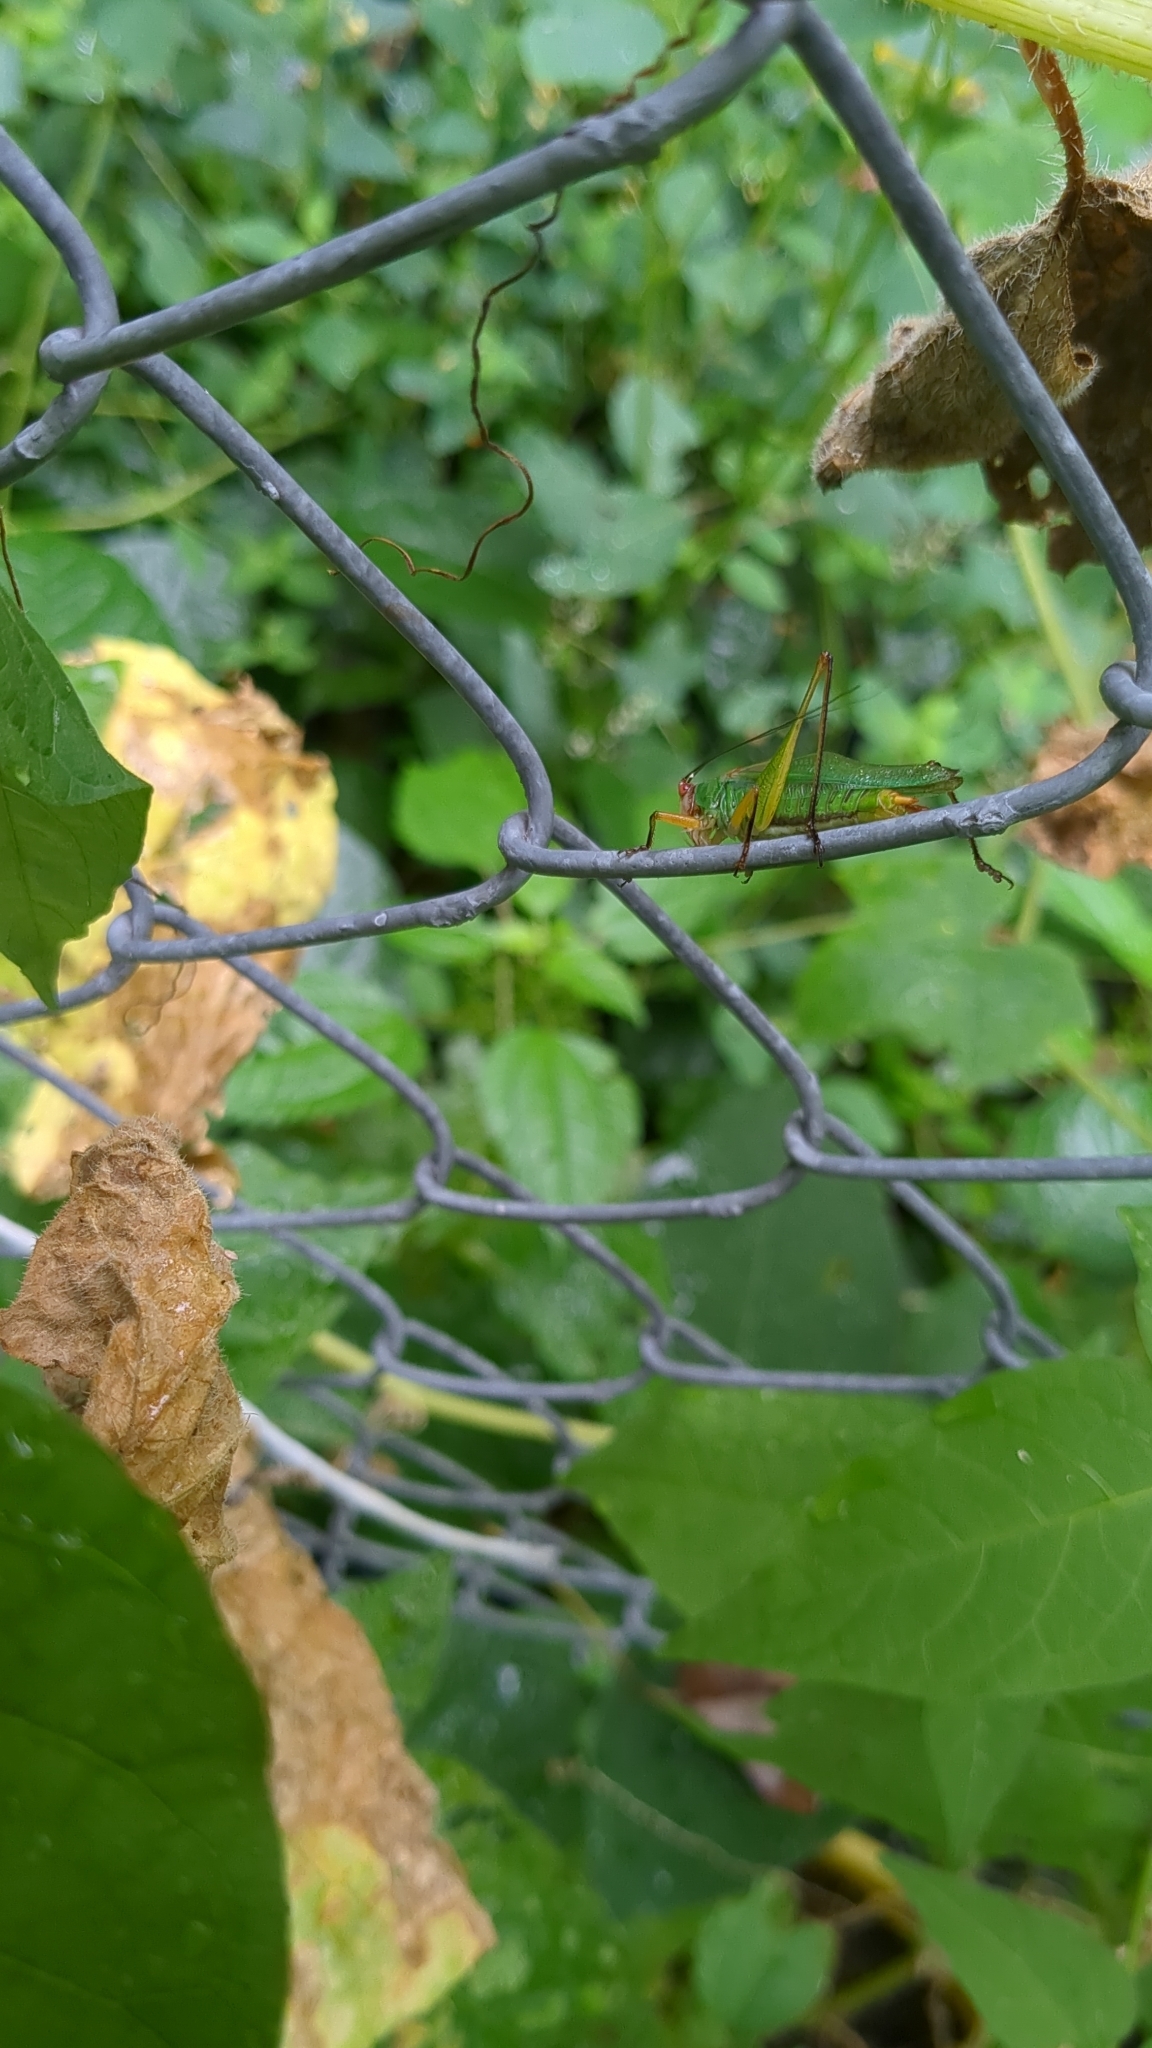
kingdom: Animalia
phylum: Arthropoda
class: Insecta
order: Orthoptera
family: Tettigoniidae
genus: Orchelimum
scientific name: Orchelimum nigripes
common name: Black-legged meadow katydid
